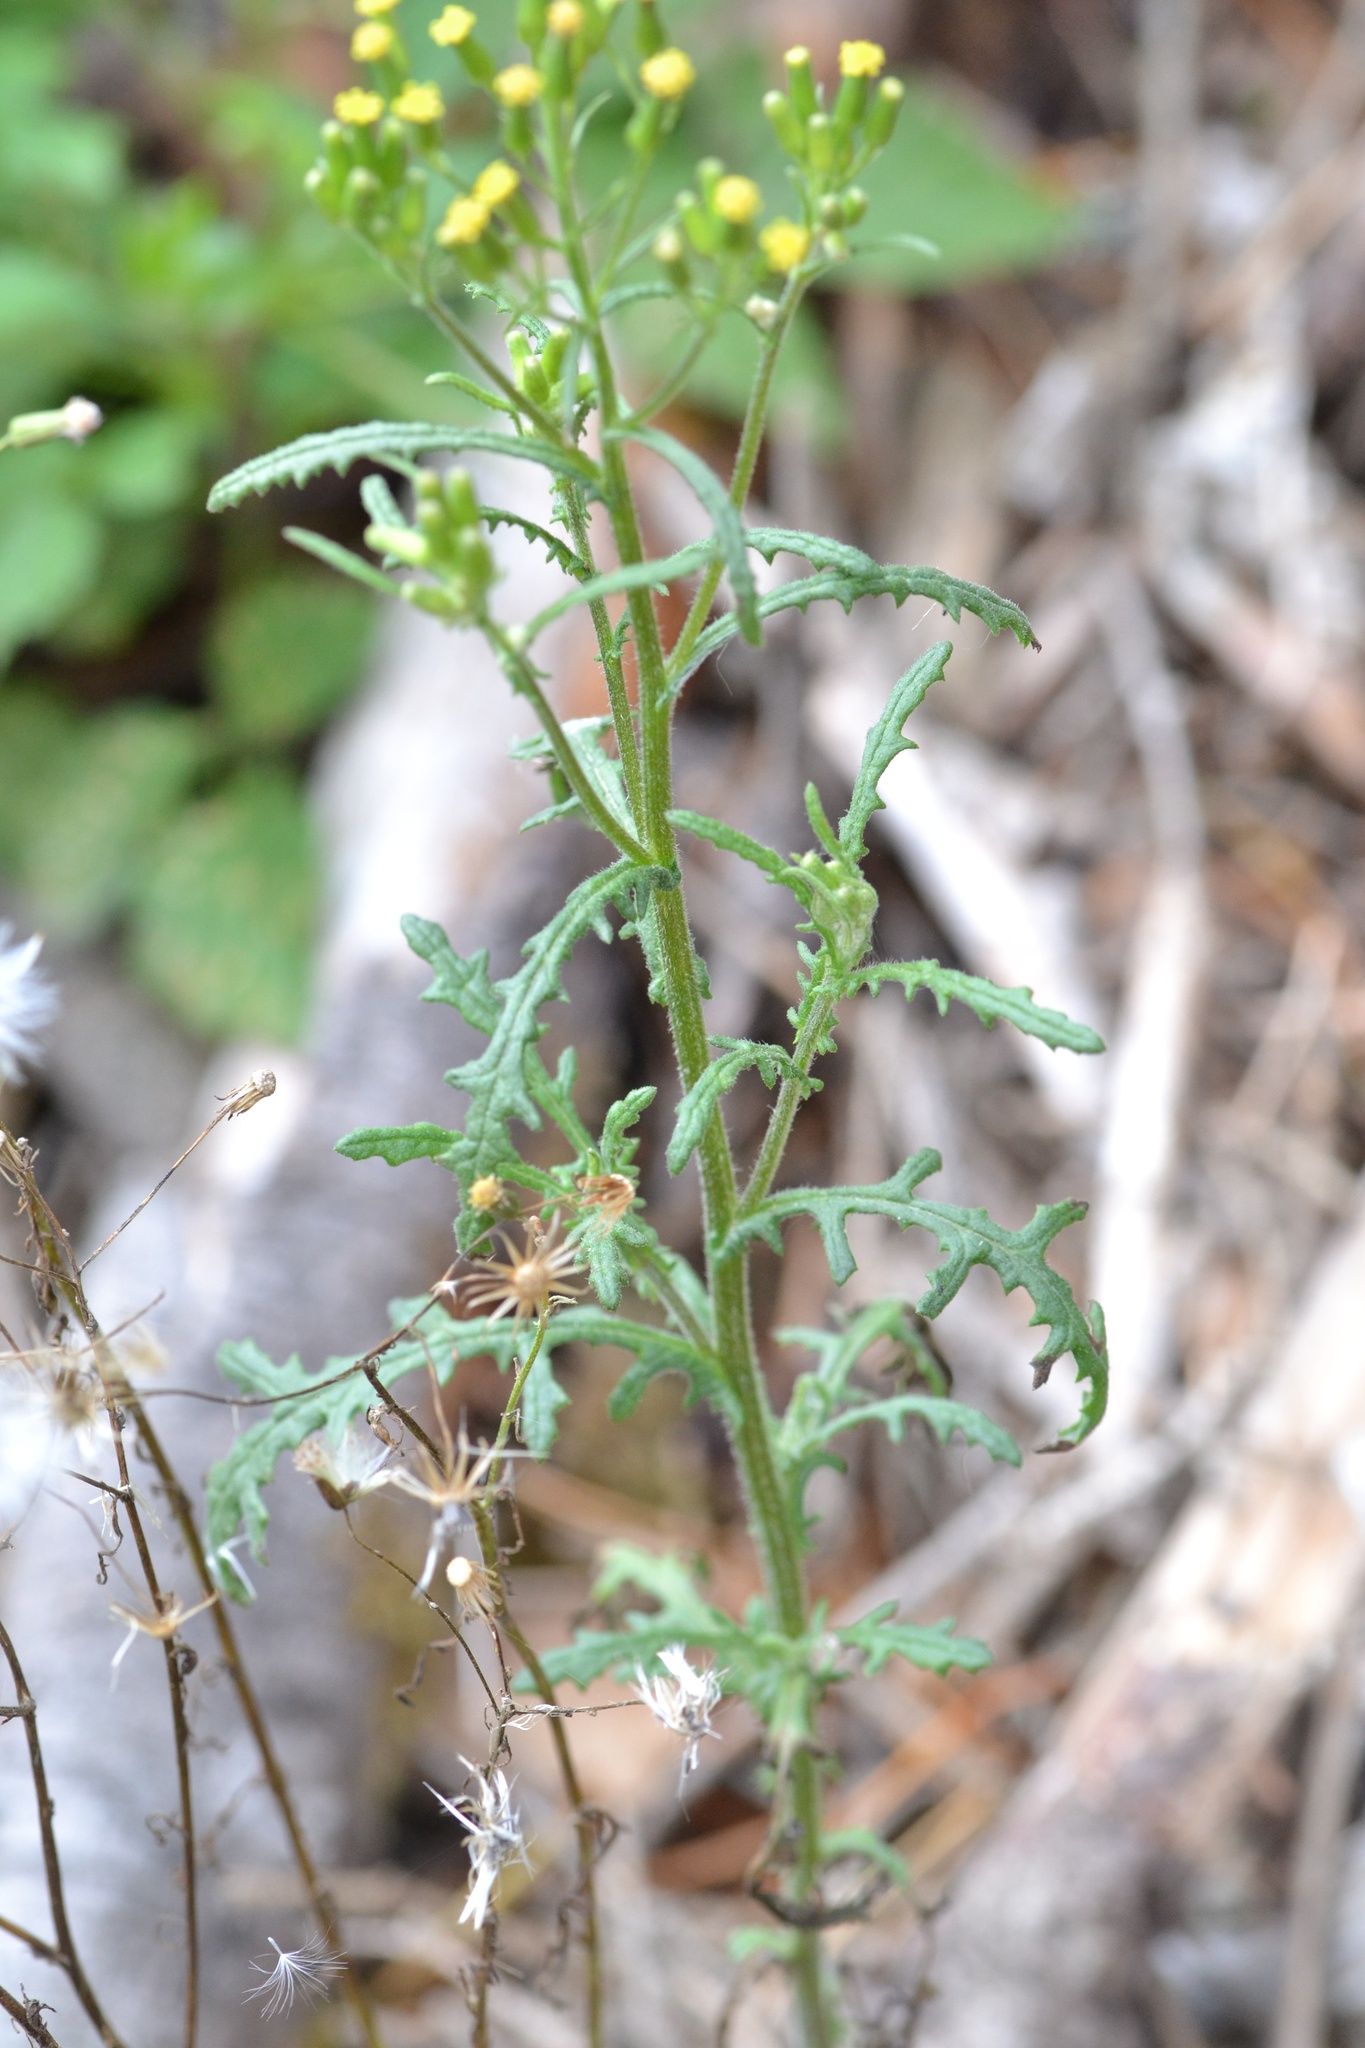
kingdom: Plantae
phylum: Tracheophyta
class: Magnoliopsida
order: Asterales
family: Asteraceae
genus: Senecio
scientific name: Senecio sylvaticus
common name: Woodland ragwort
